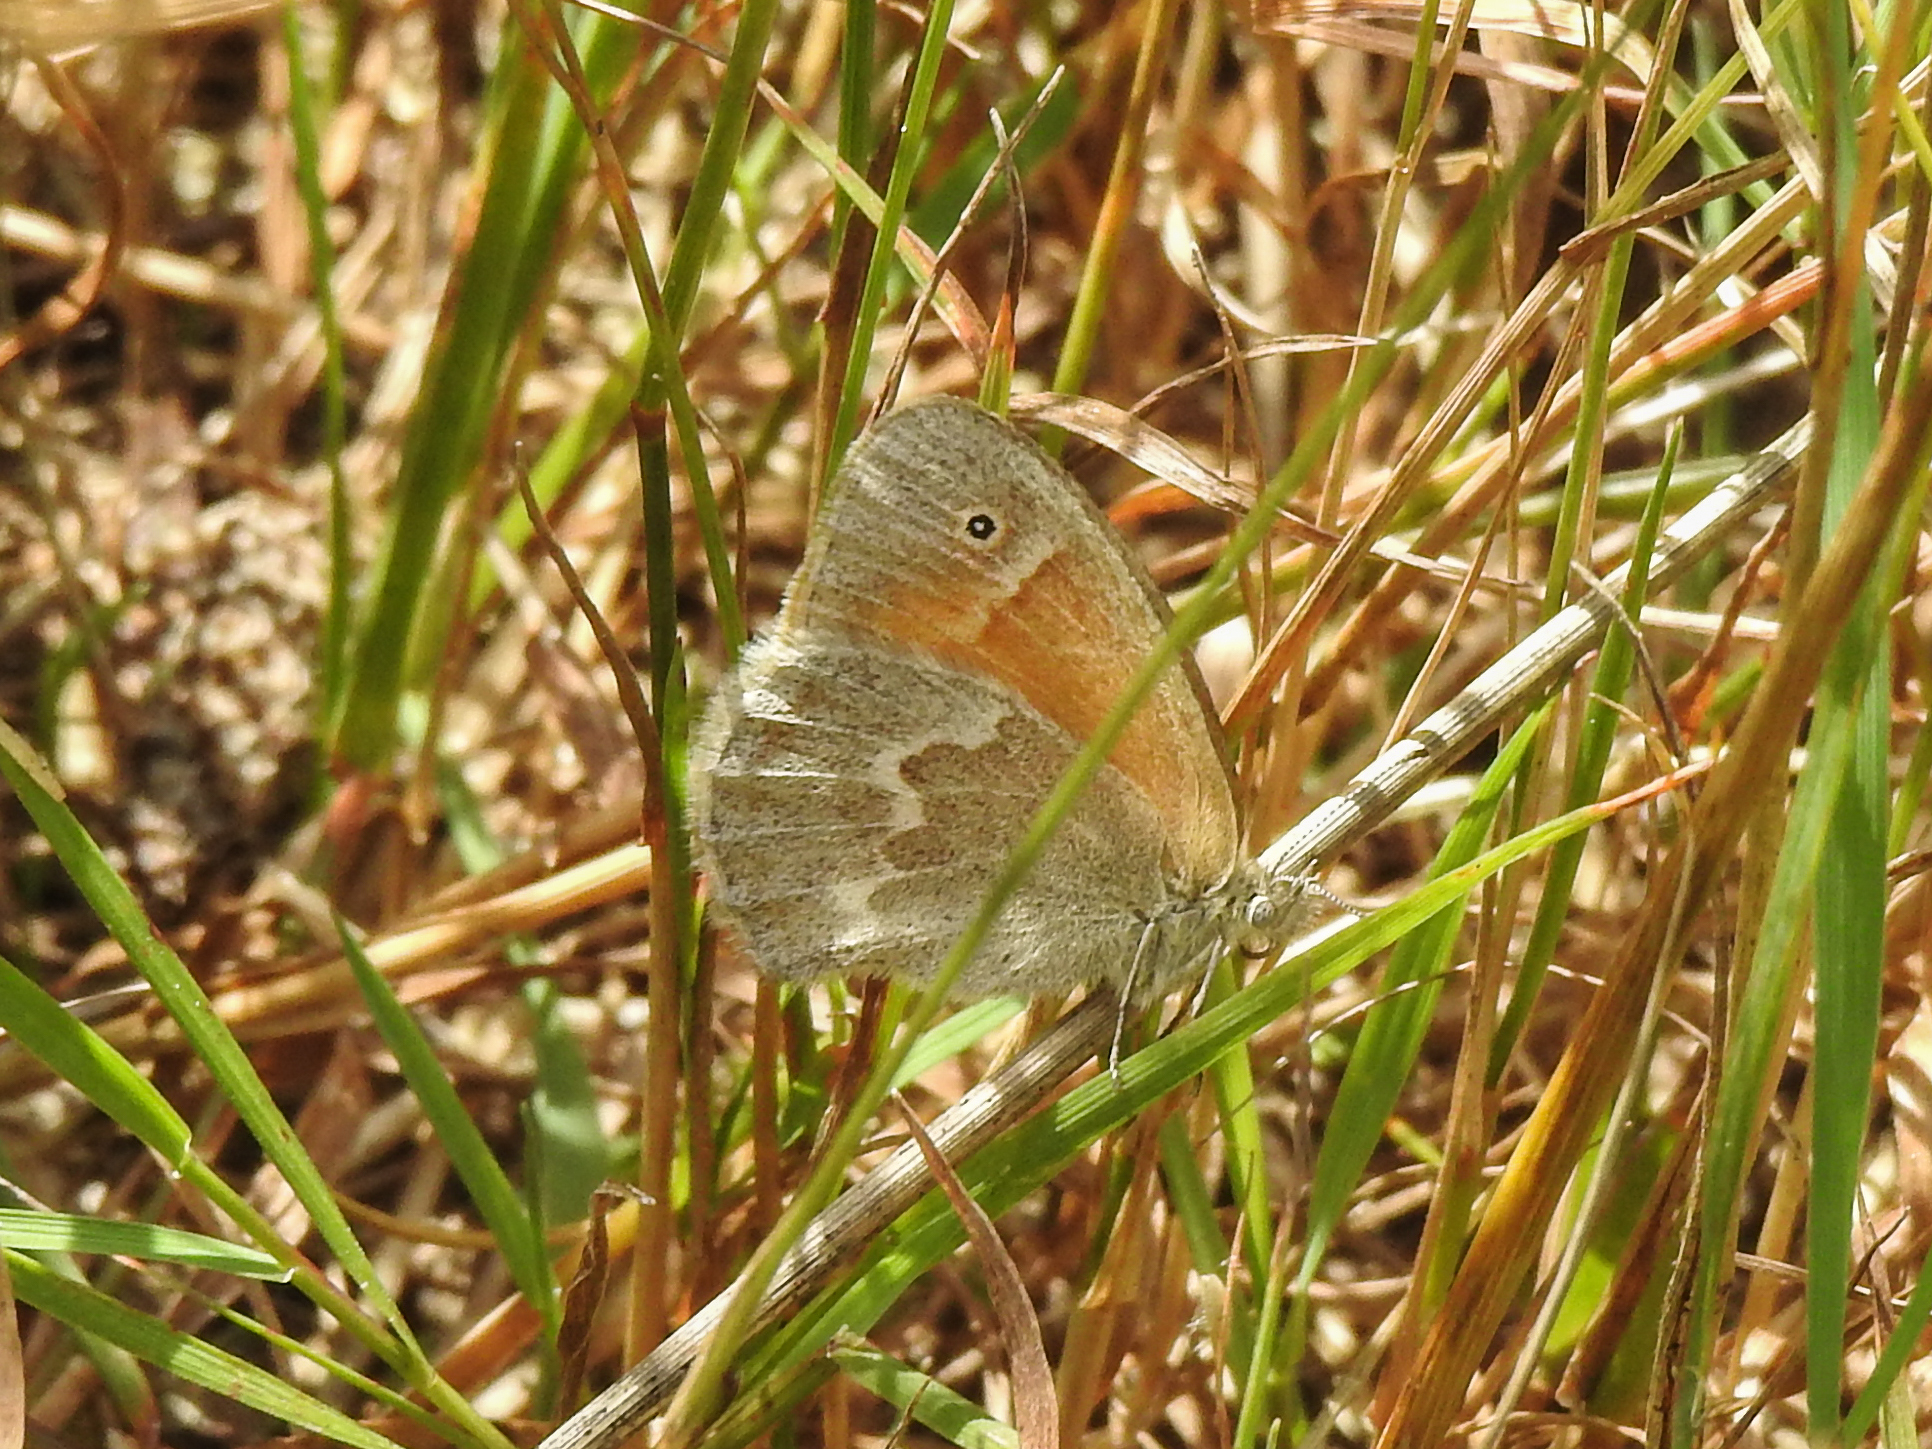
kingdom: Animalia
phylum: Arthropoda
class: Insecta
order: Lepidoptera
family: Nymphalidae
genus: Coenonympha
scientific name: Coenonympha california
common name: Common ringlet
